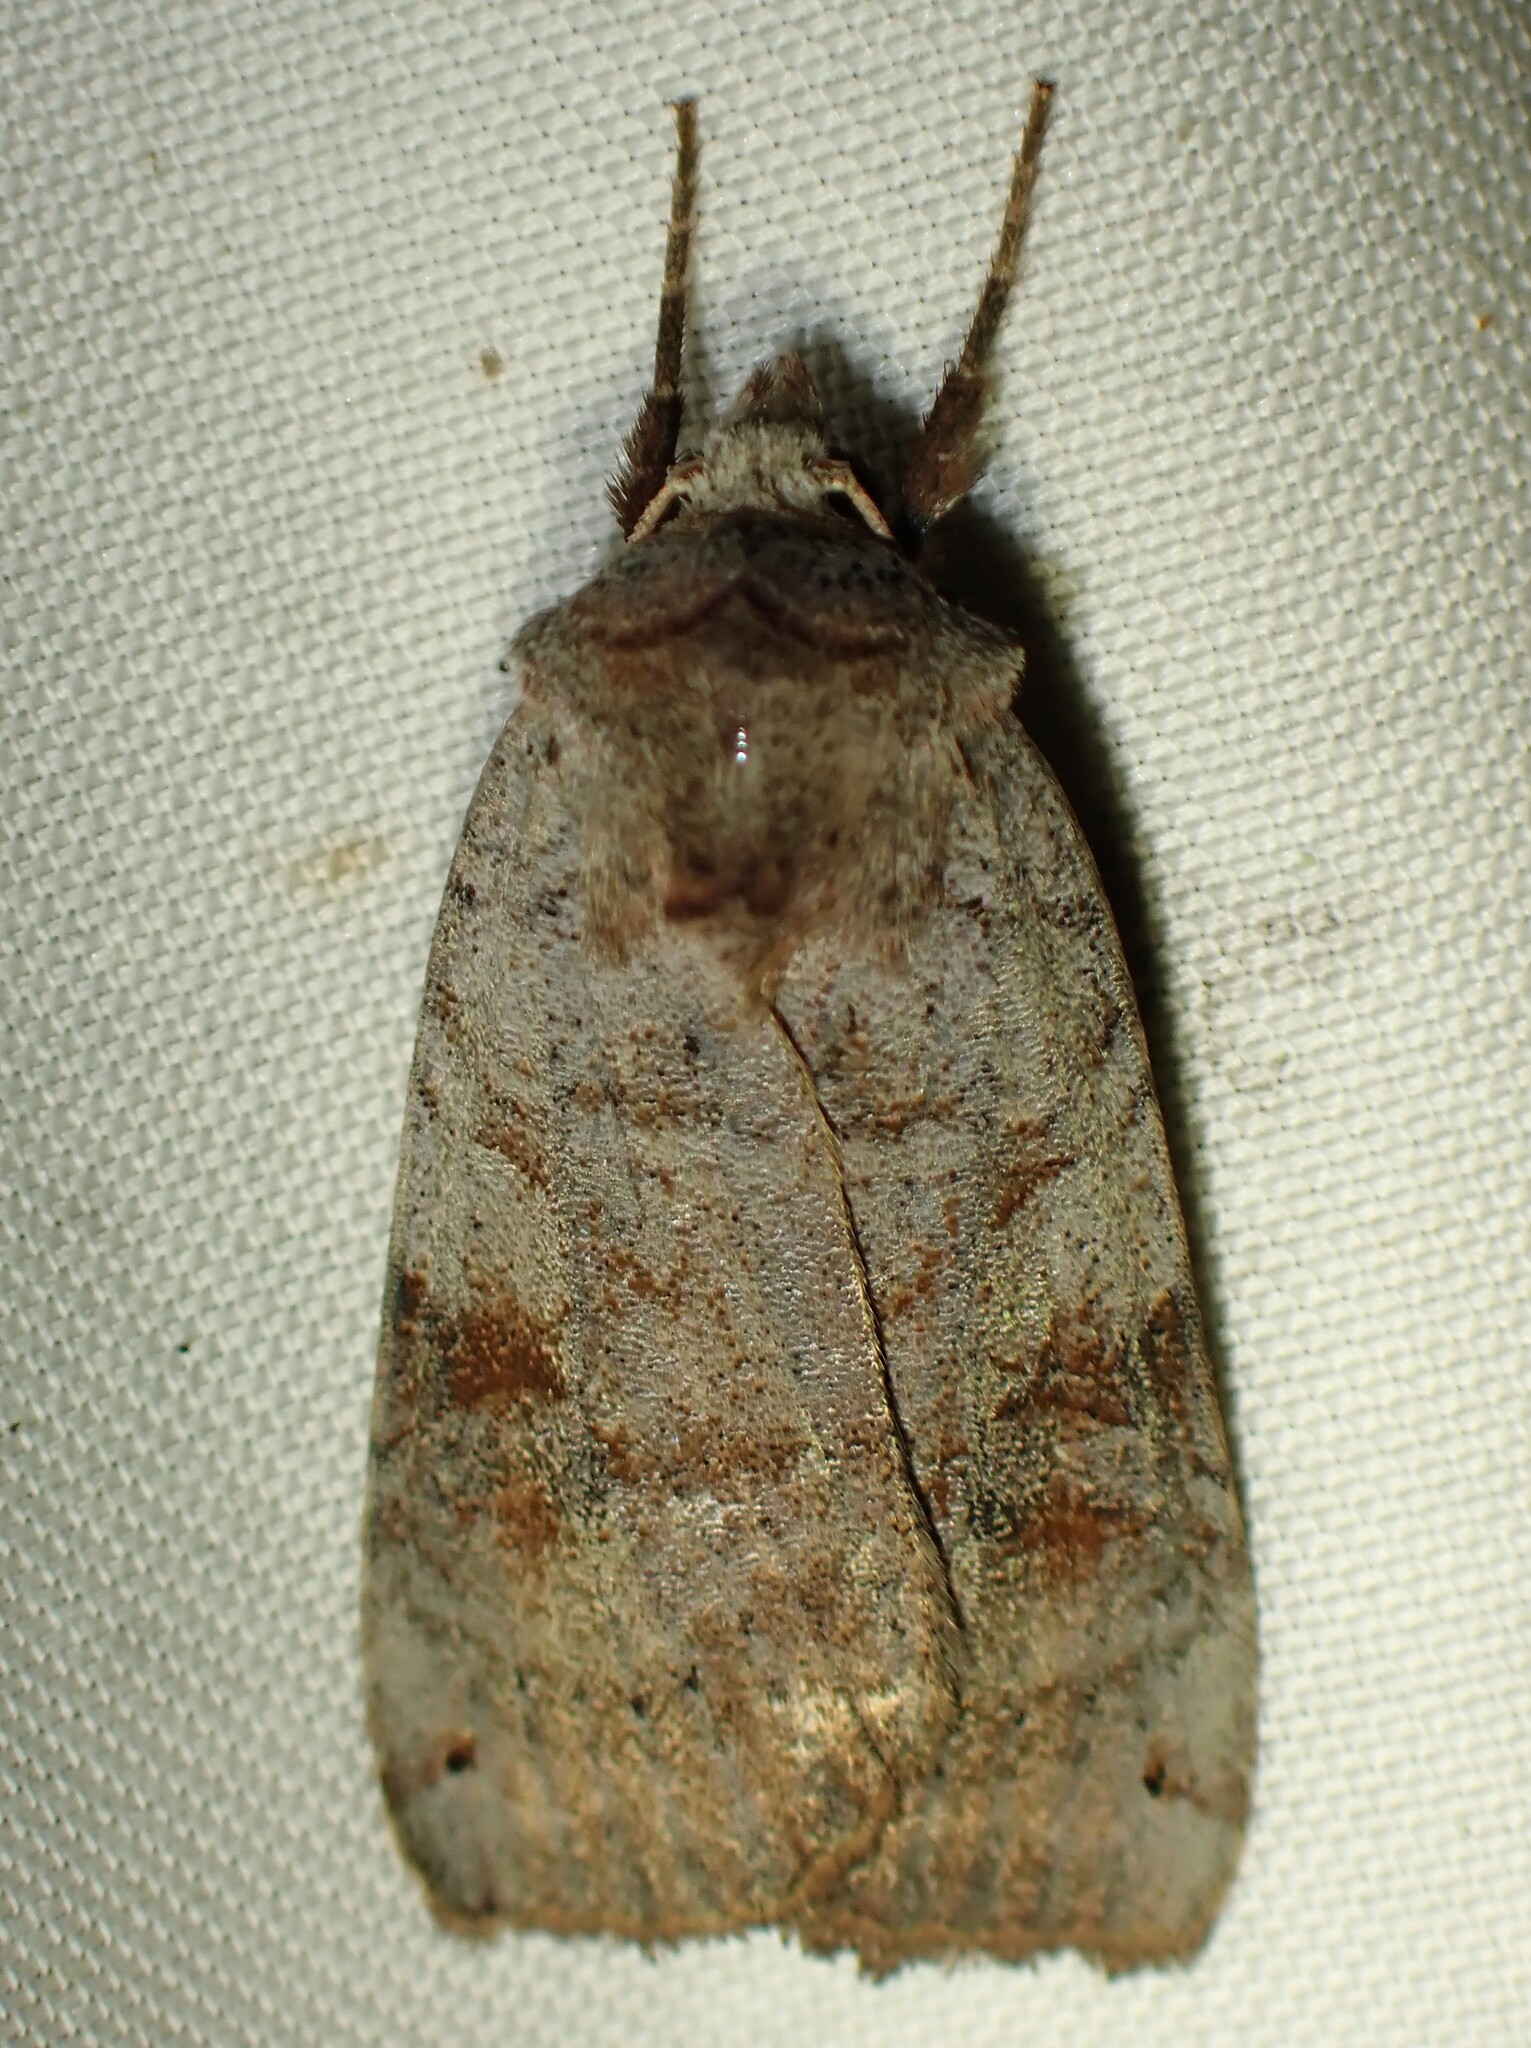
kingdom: Animalia
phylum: Arthropoda
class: Insecta
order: Lepidoptera
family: Noctuidae
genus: Xestia
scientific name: Xestia smithii
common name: Smith's dart
